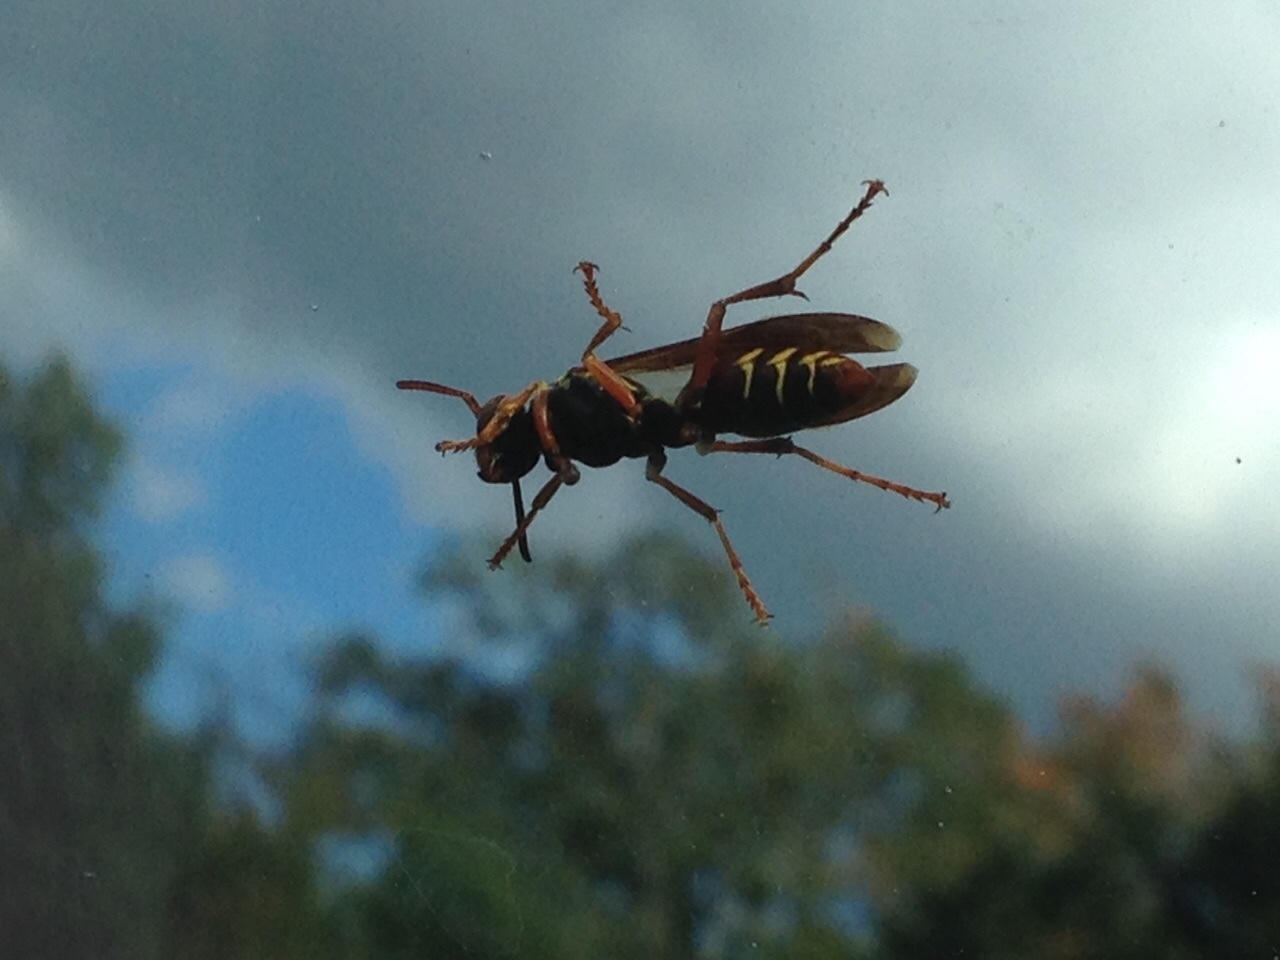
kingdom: Animalia
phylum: Arthropoda
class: Insecta
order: Hymenoptera
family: Vespidae
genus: Fuscopolistes
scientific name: Fuscopolistes
